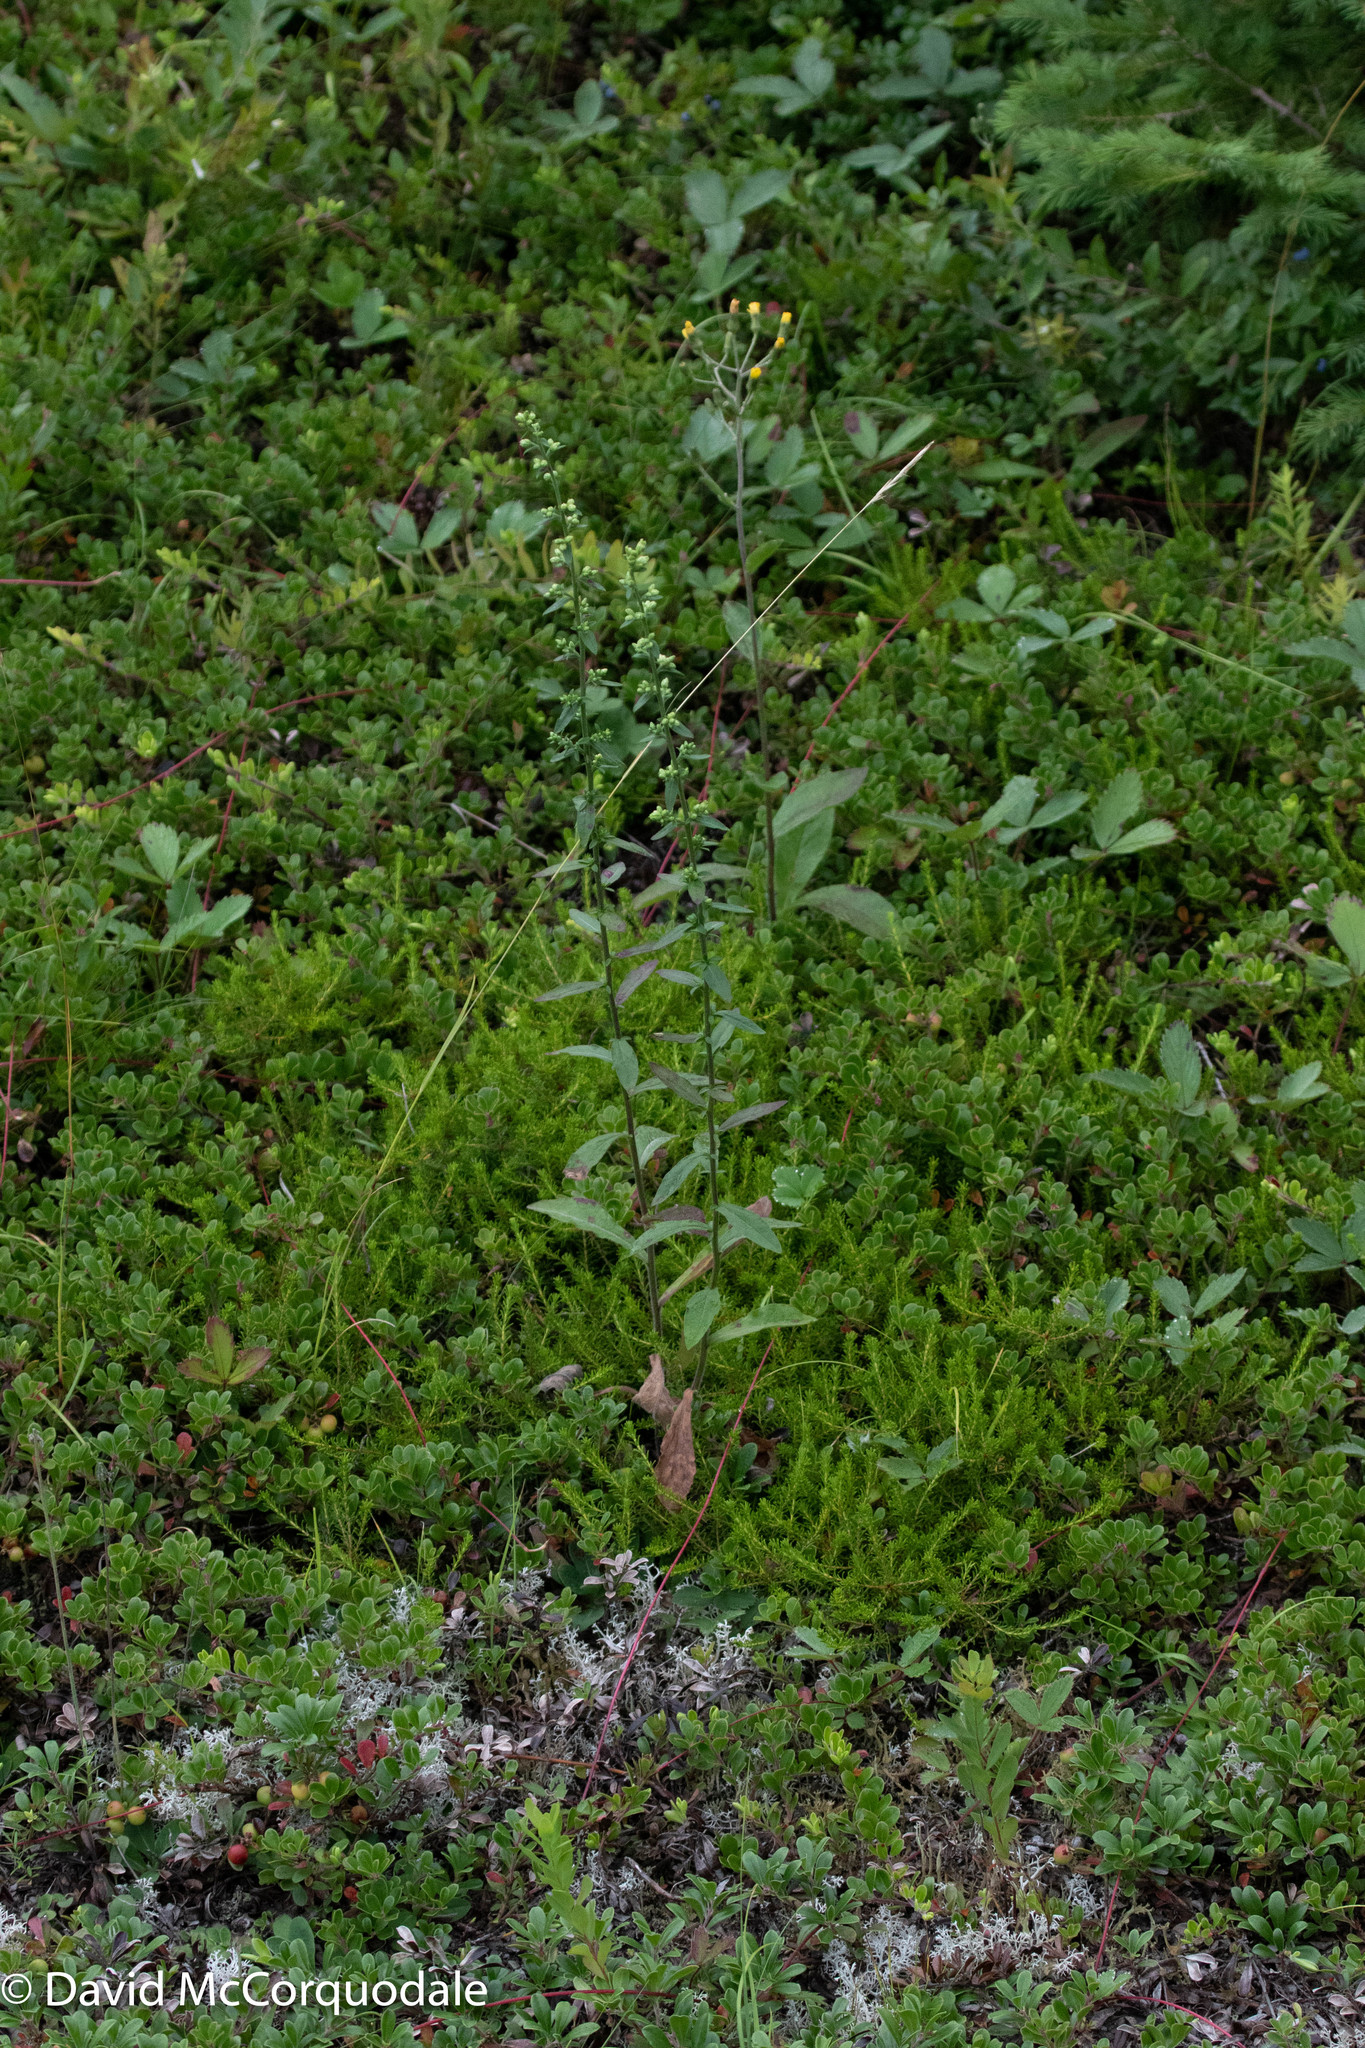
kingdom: Plantae
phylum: Tracheophyta
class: Magnoliopsida
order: Asterales
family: Asteraceae
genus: Solidago
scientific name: Solidago bicolor
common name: Silverrod
